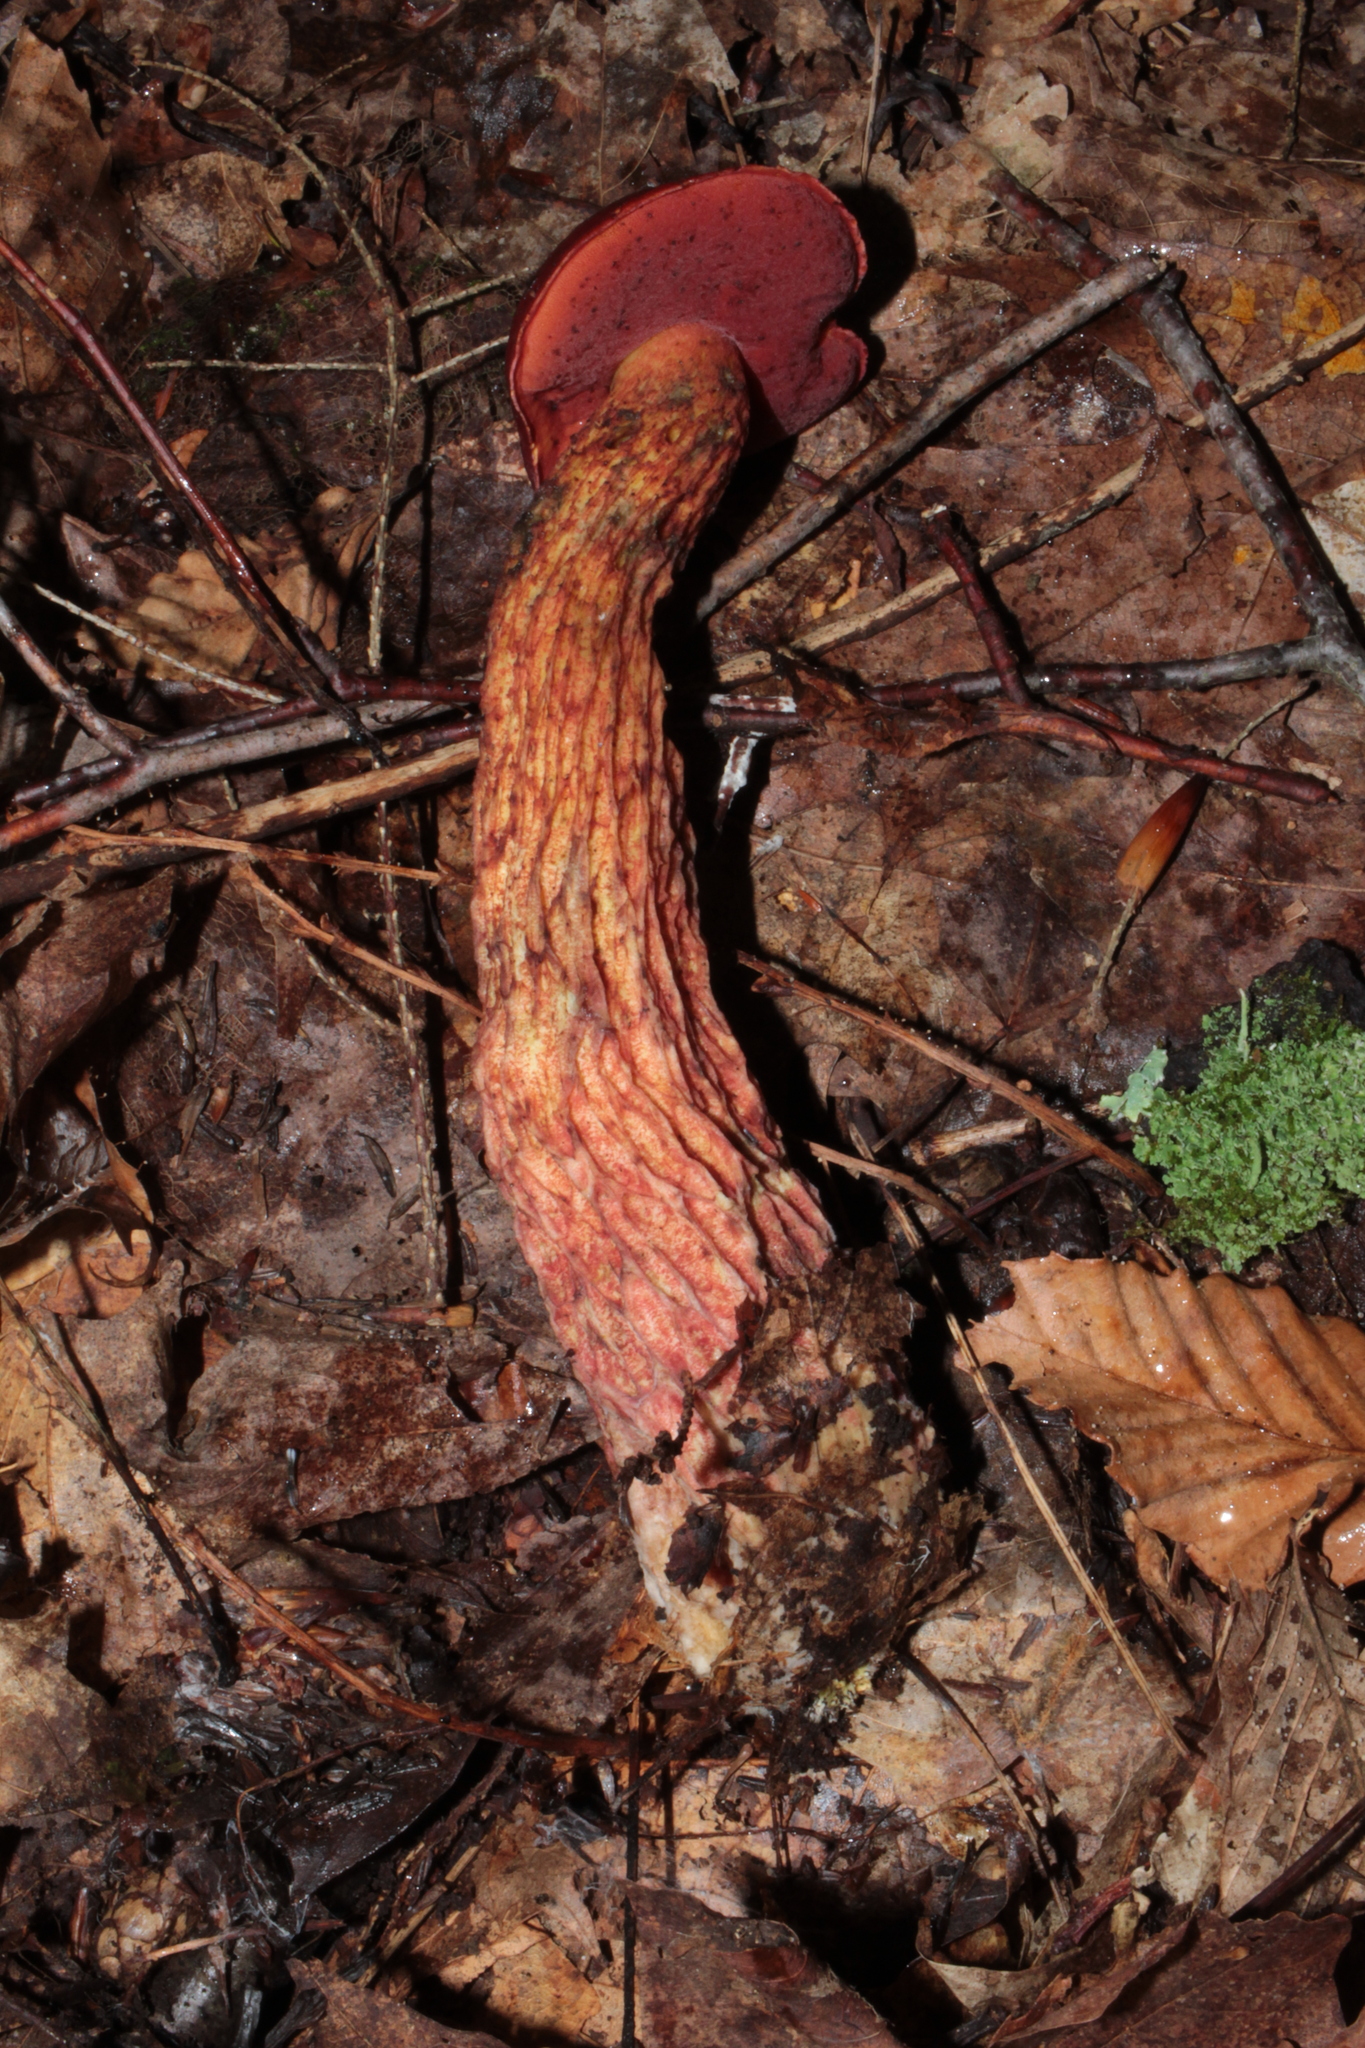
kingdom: Fungi
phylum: Basidiomycota
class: Agaricomycetes
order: Boletales
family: Boletaceae
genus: Butyriboletus
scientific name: Butyriboletus frostii
